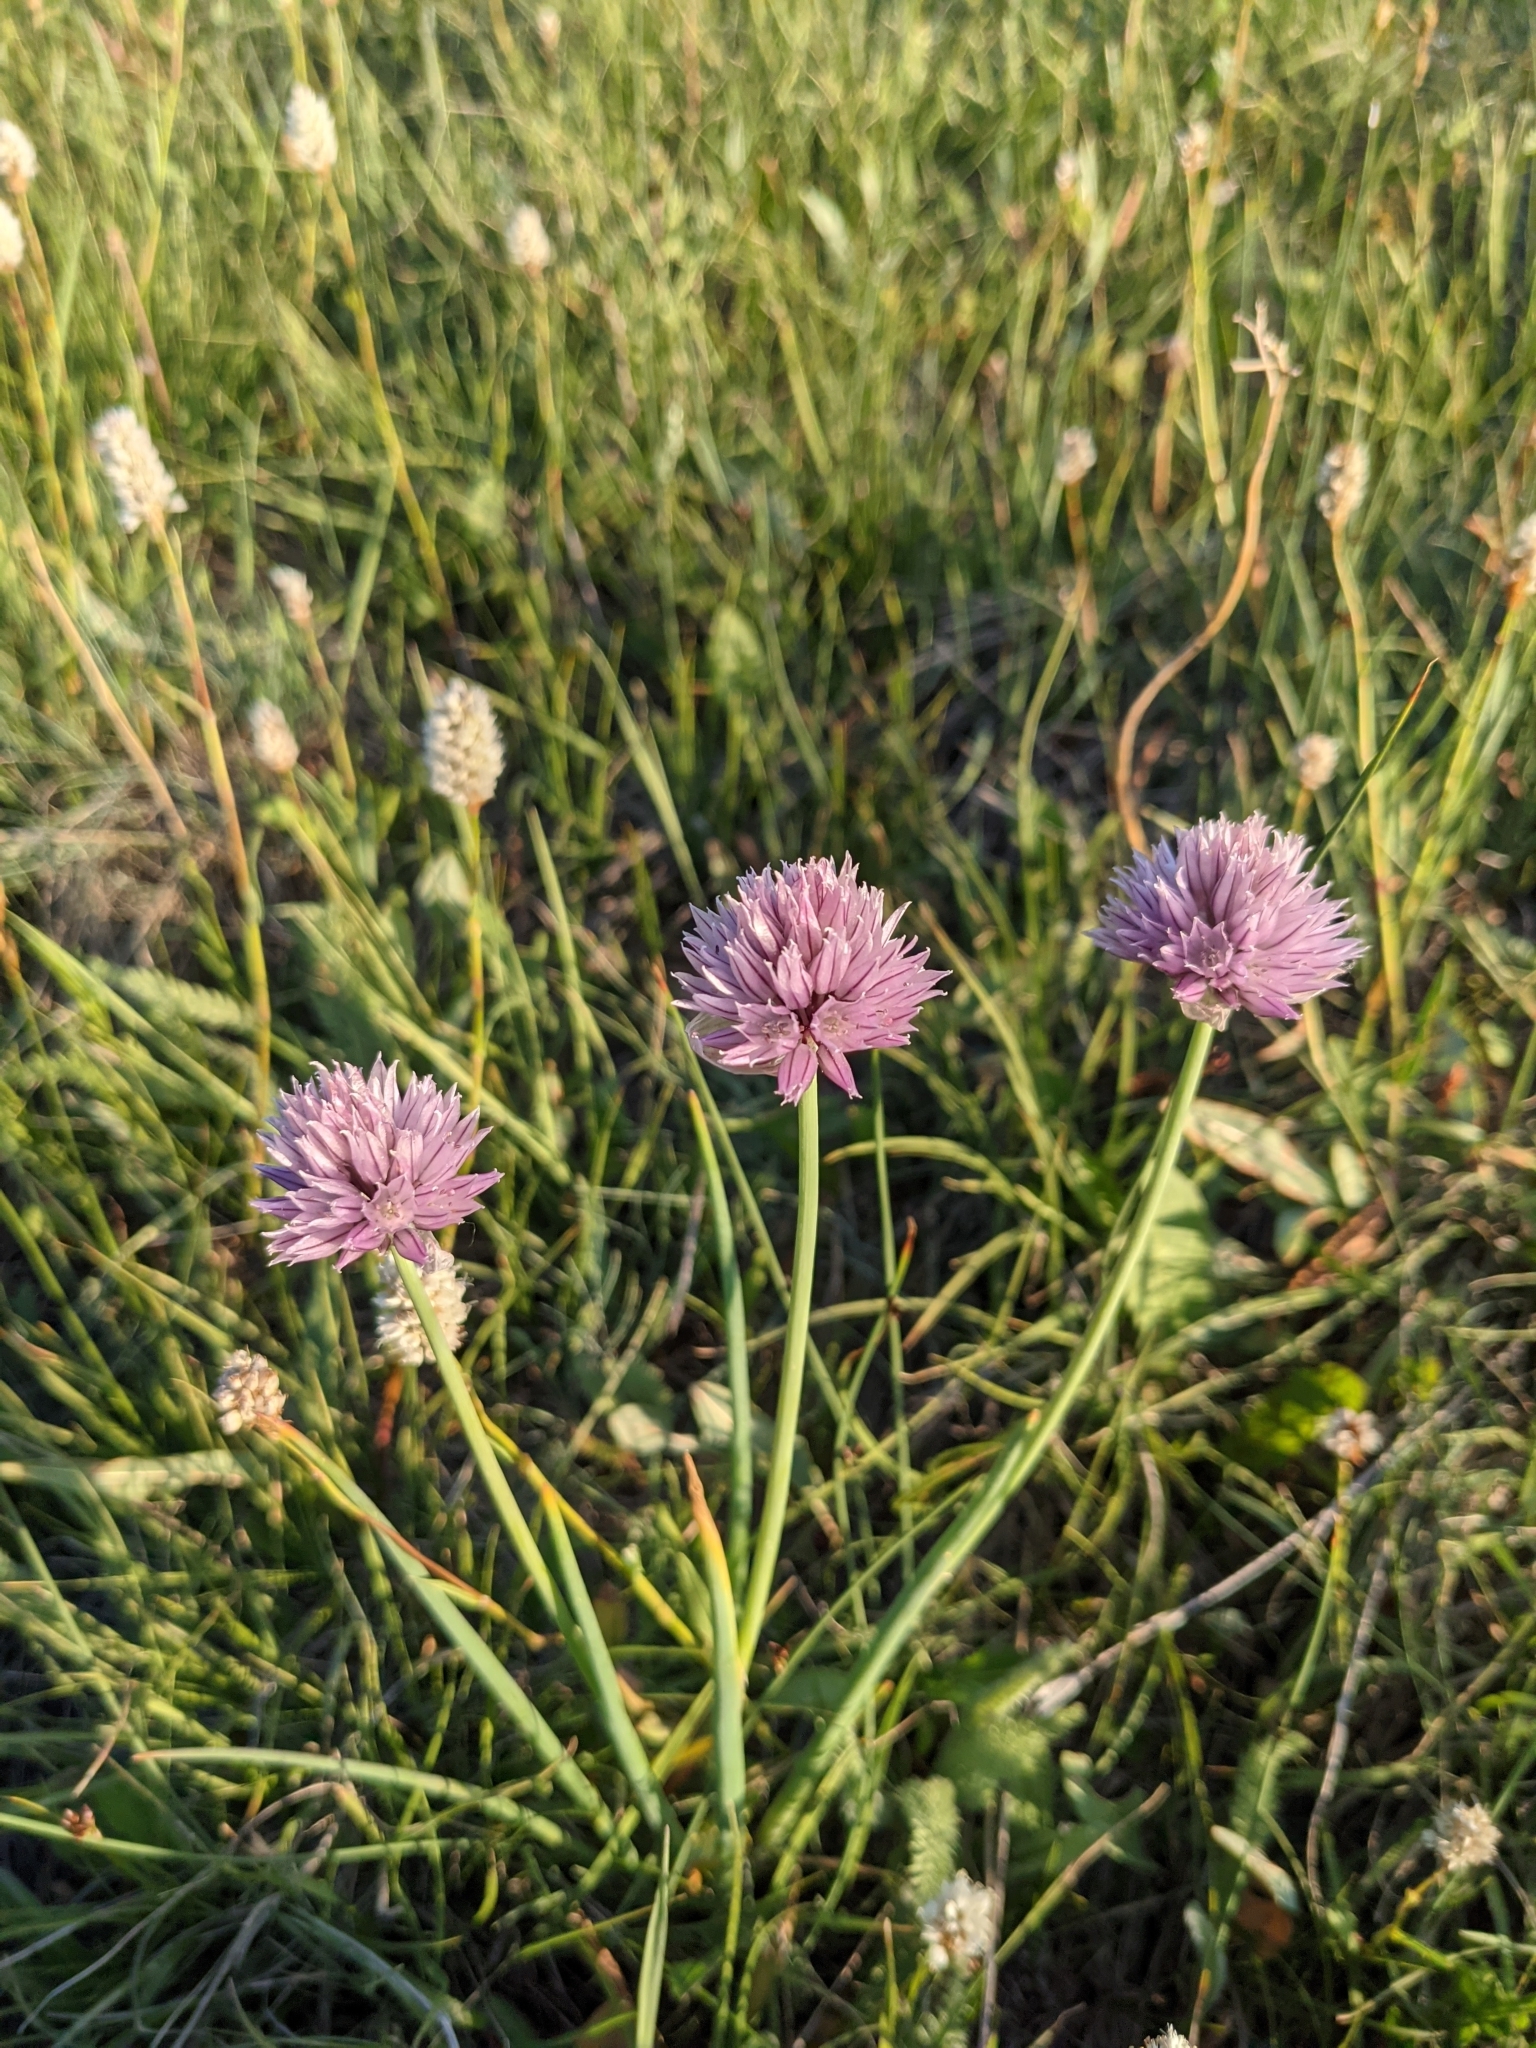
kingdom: Plantae
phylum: Tracheophyta
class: Liliopsida
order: Asparagales
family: Amaryllidaceae
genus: Allium
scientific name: Allium schoenoprasum
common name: Chives
